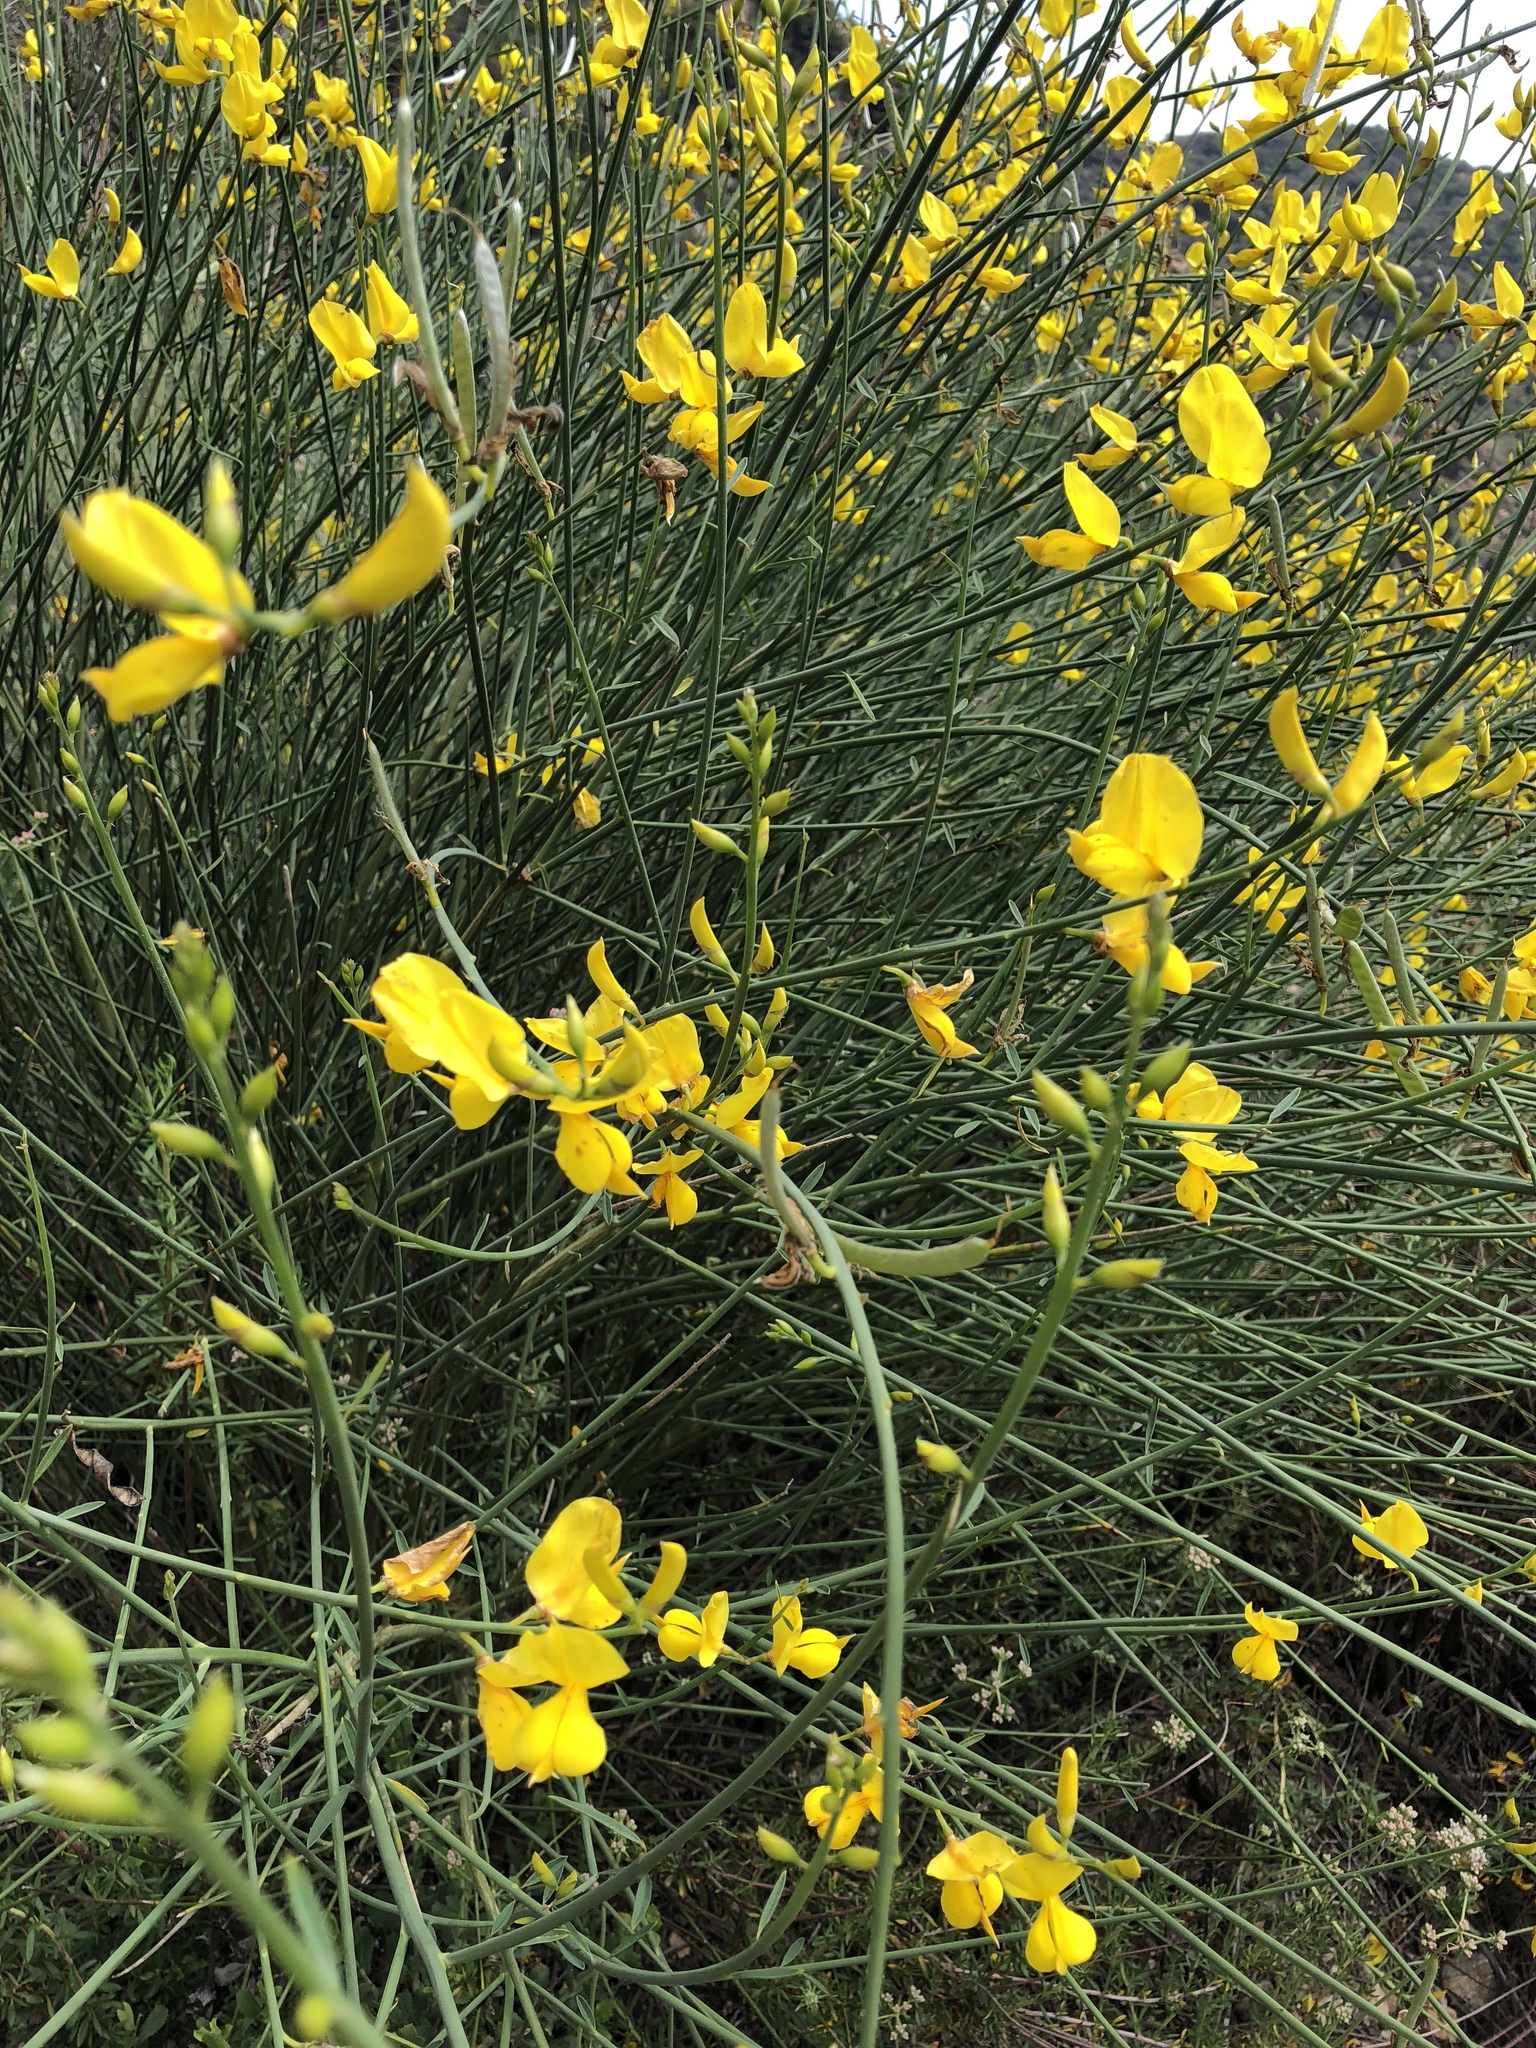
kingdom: Plantae
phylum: Tracheophyta
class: Magnoliopsida
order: Fabales
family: Fabaceae
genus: Spartium
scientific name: Spartium junceum
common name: Spanish broom
